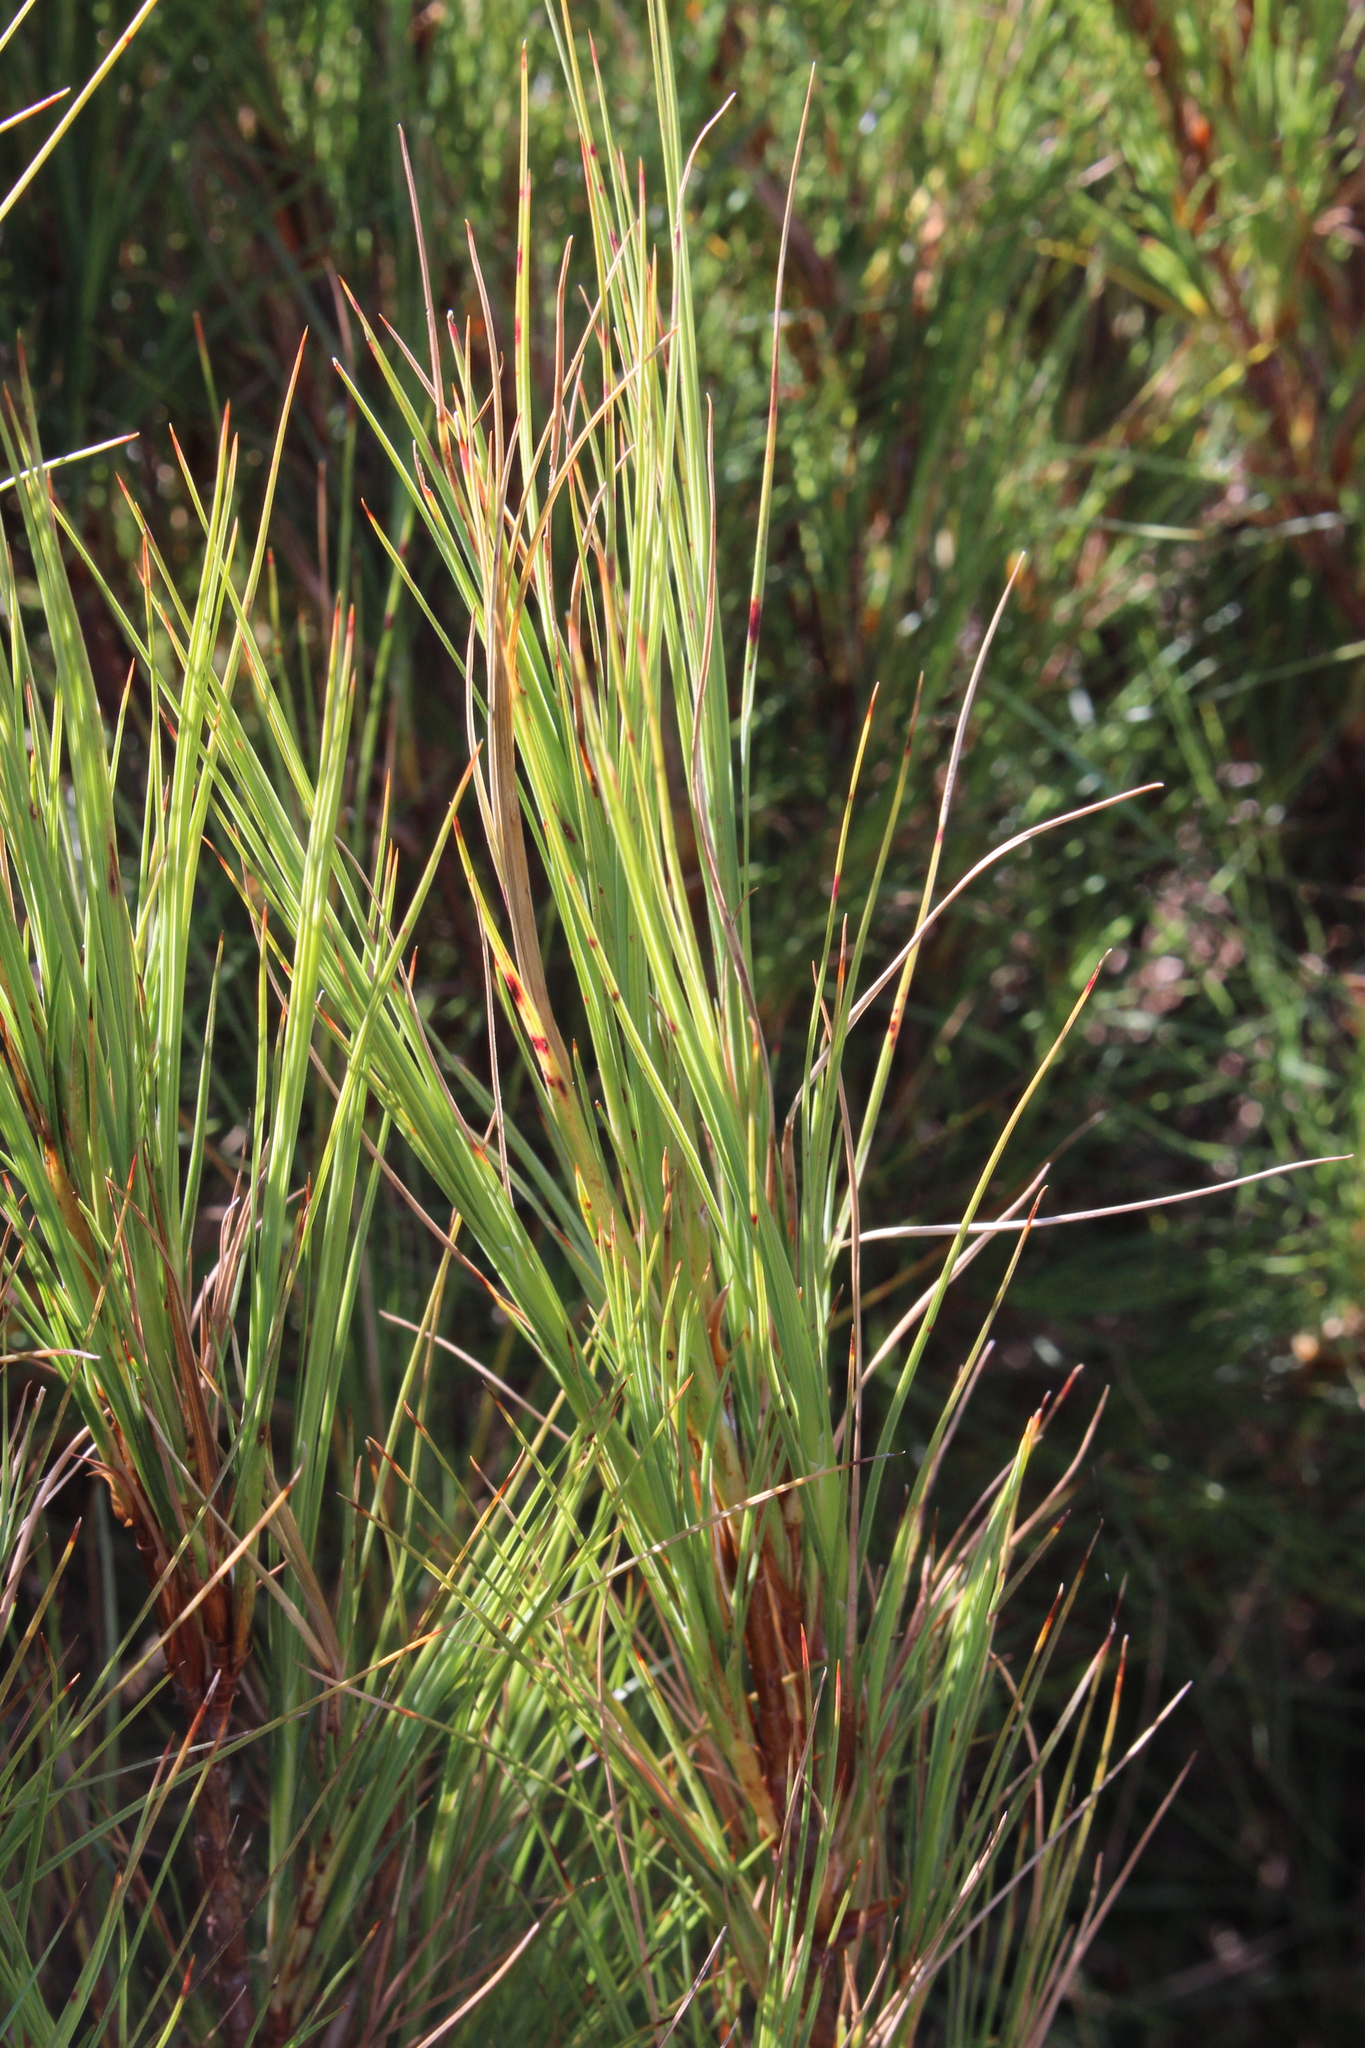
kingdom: Plantae
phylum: Tracheophyta
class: Magnoliopsida
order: Ericales
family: Ericaceae
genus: Dracophyllum
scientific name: Dracophyllum acerosum
